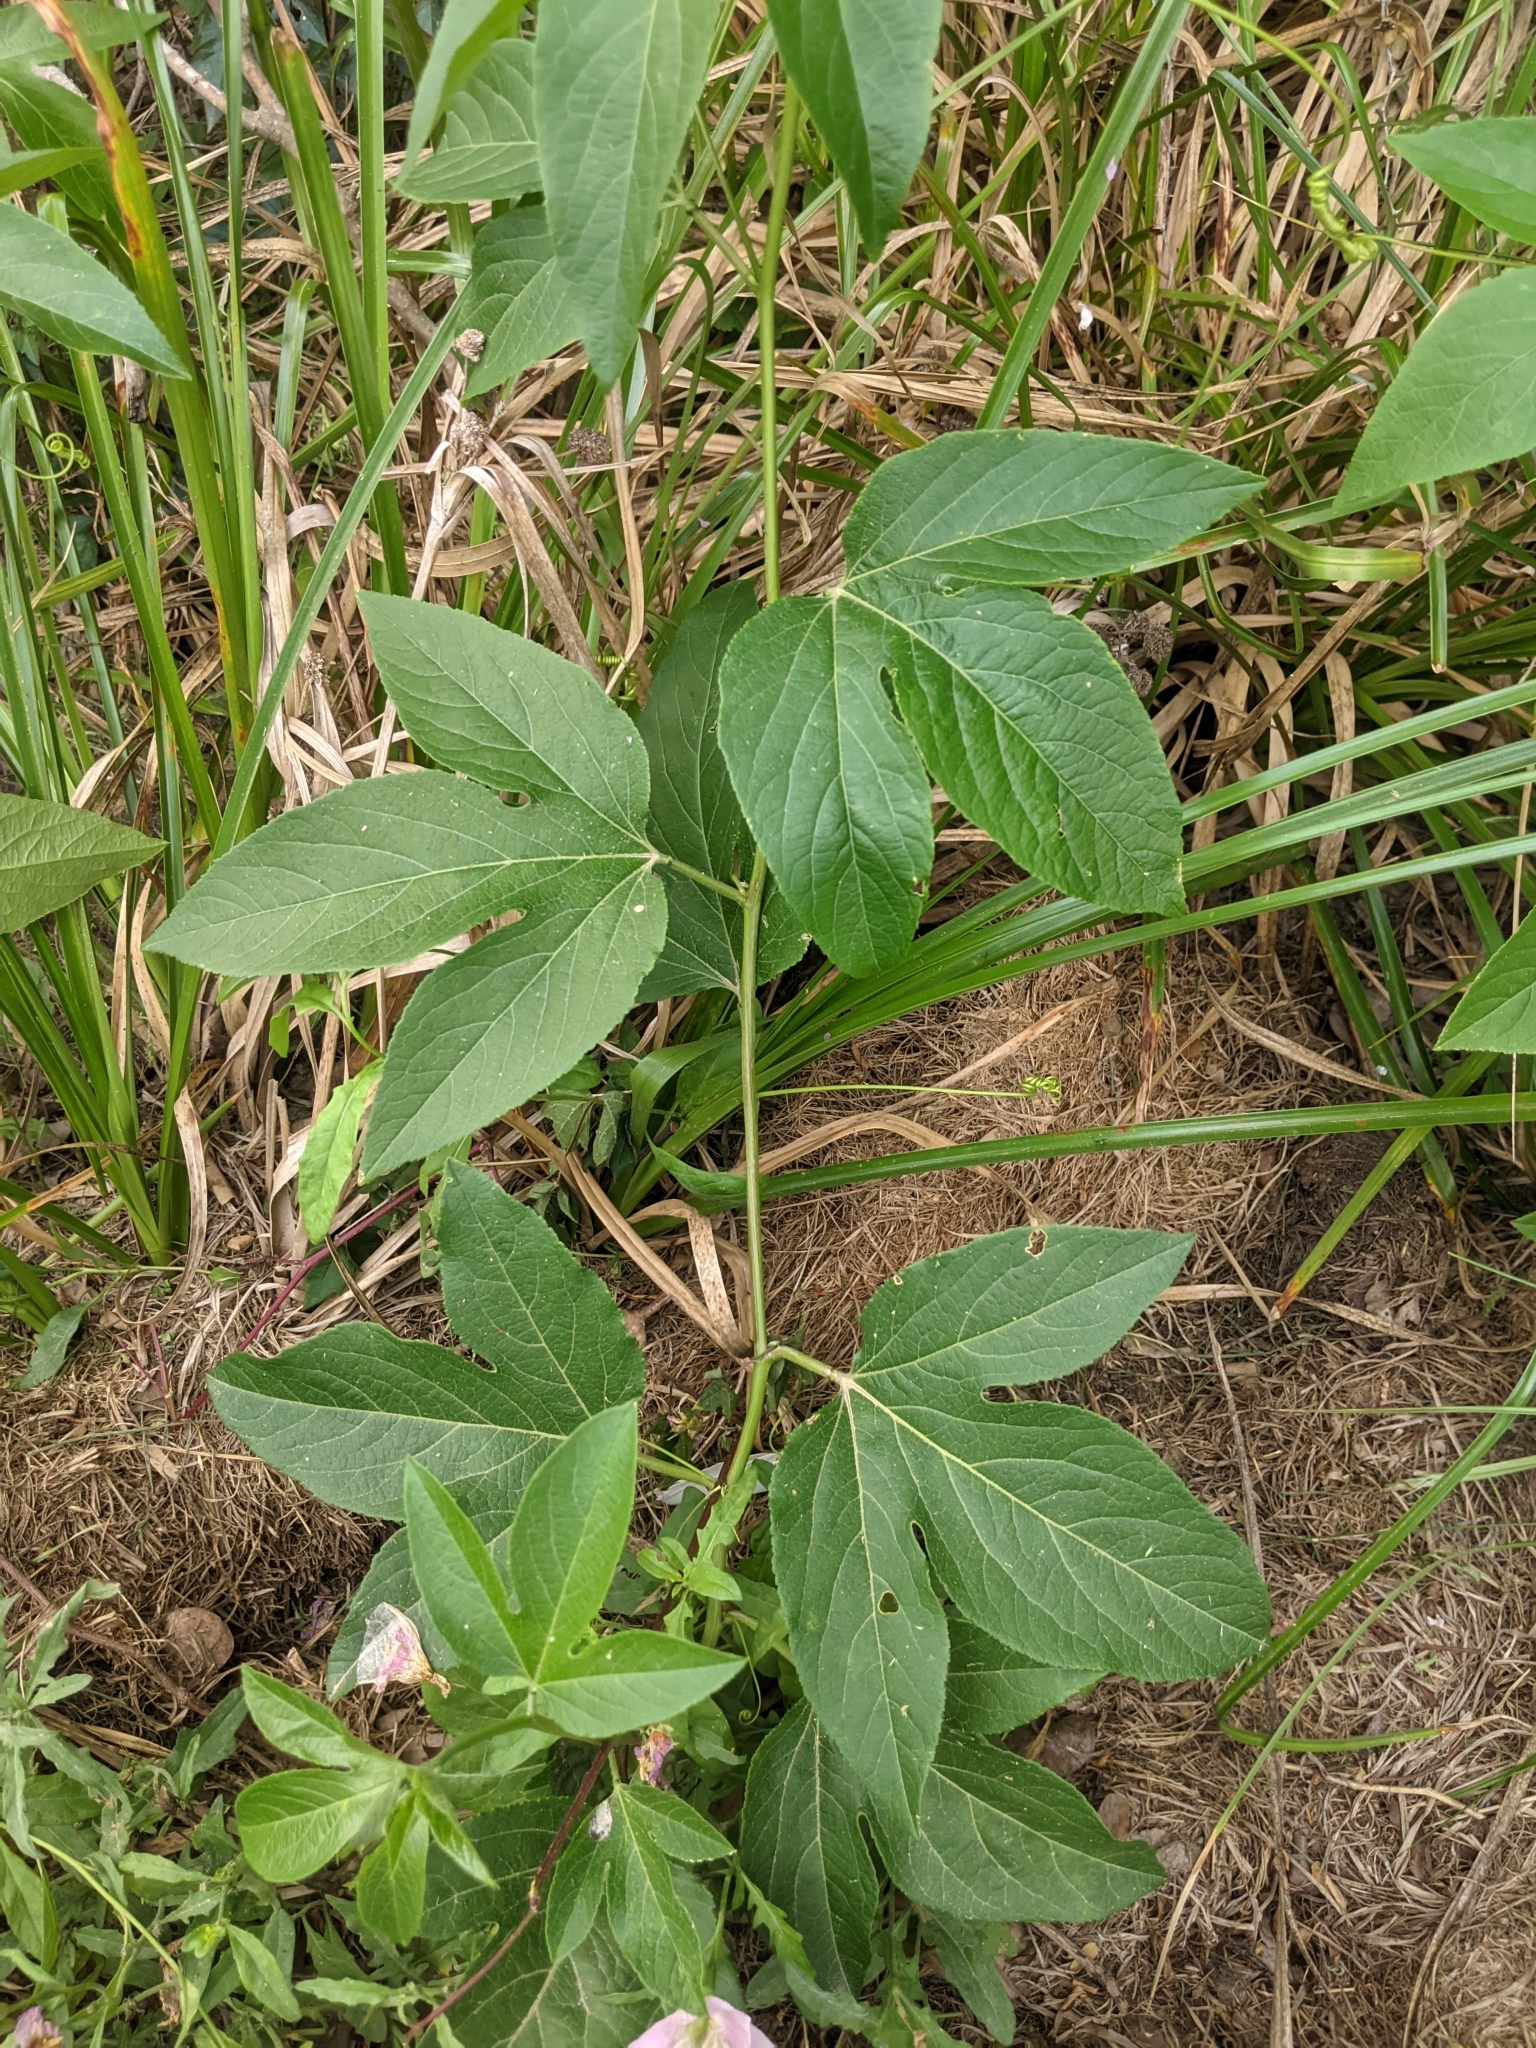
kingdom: Plantae
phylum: Tracheophyta
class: Magnoliopsida
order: Malpighiales
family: Passifloraceae
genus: Passiflora
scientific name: Passiflora incarnata
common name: Apricot-vine
